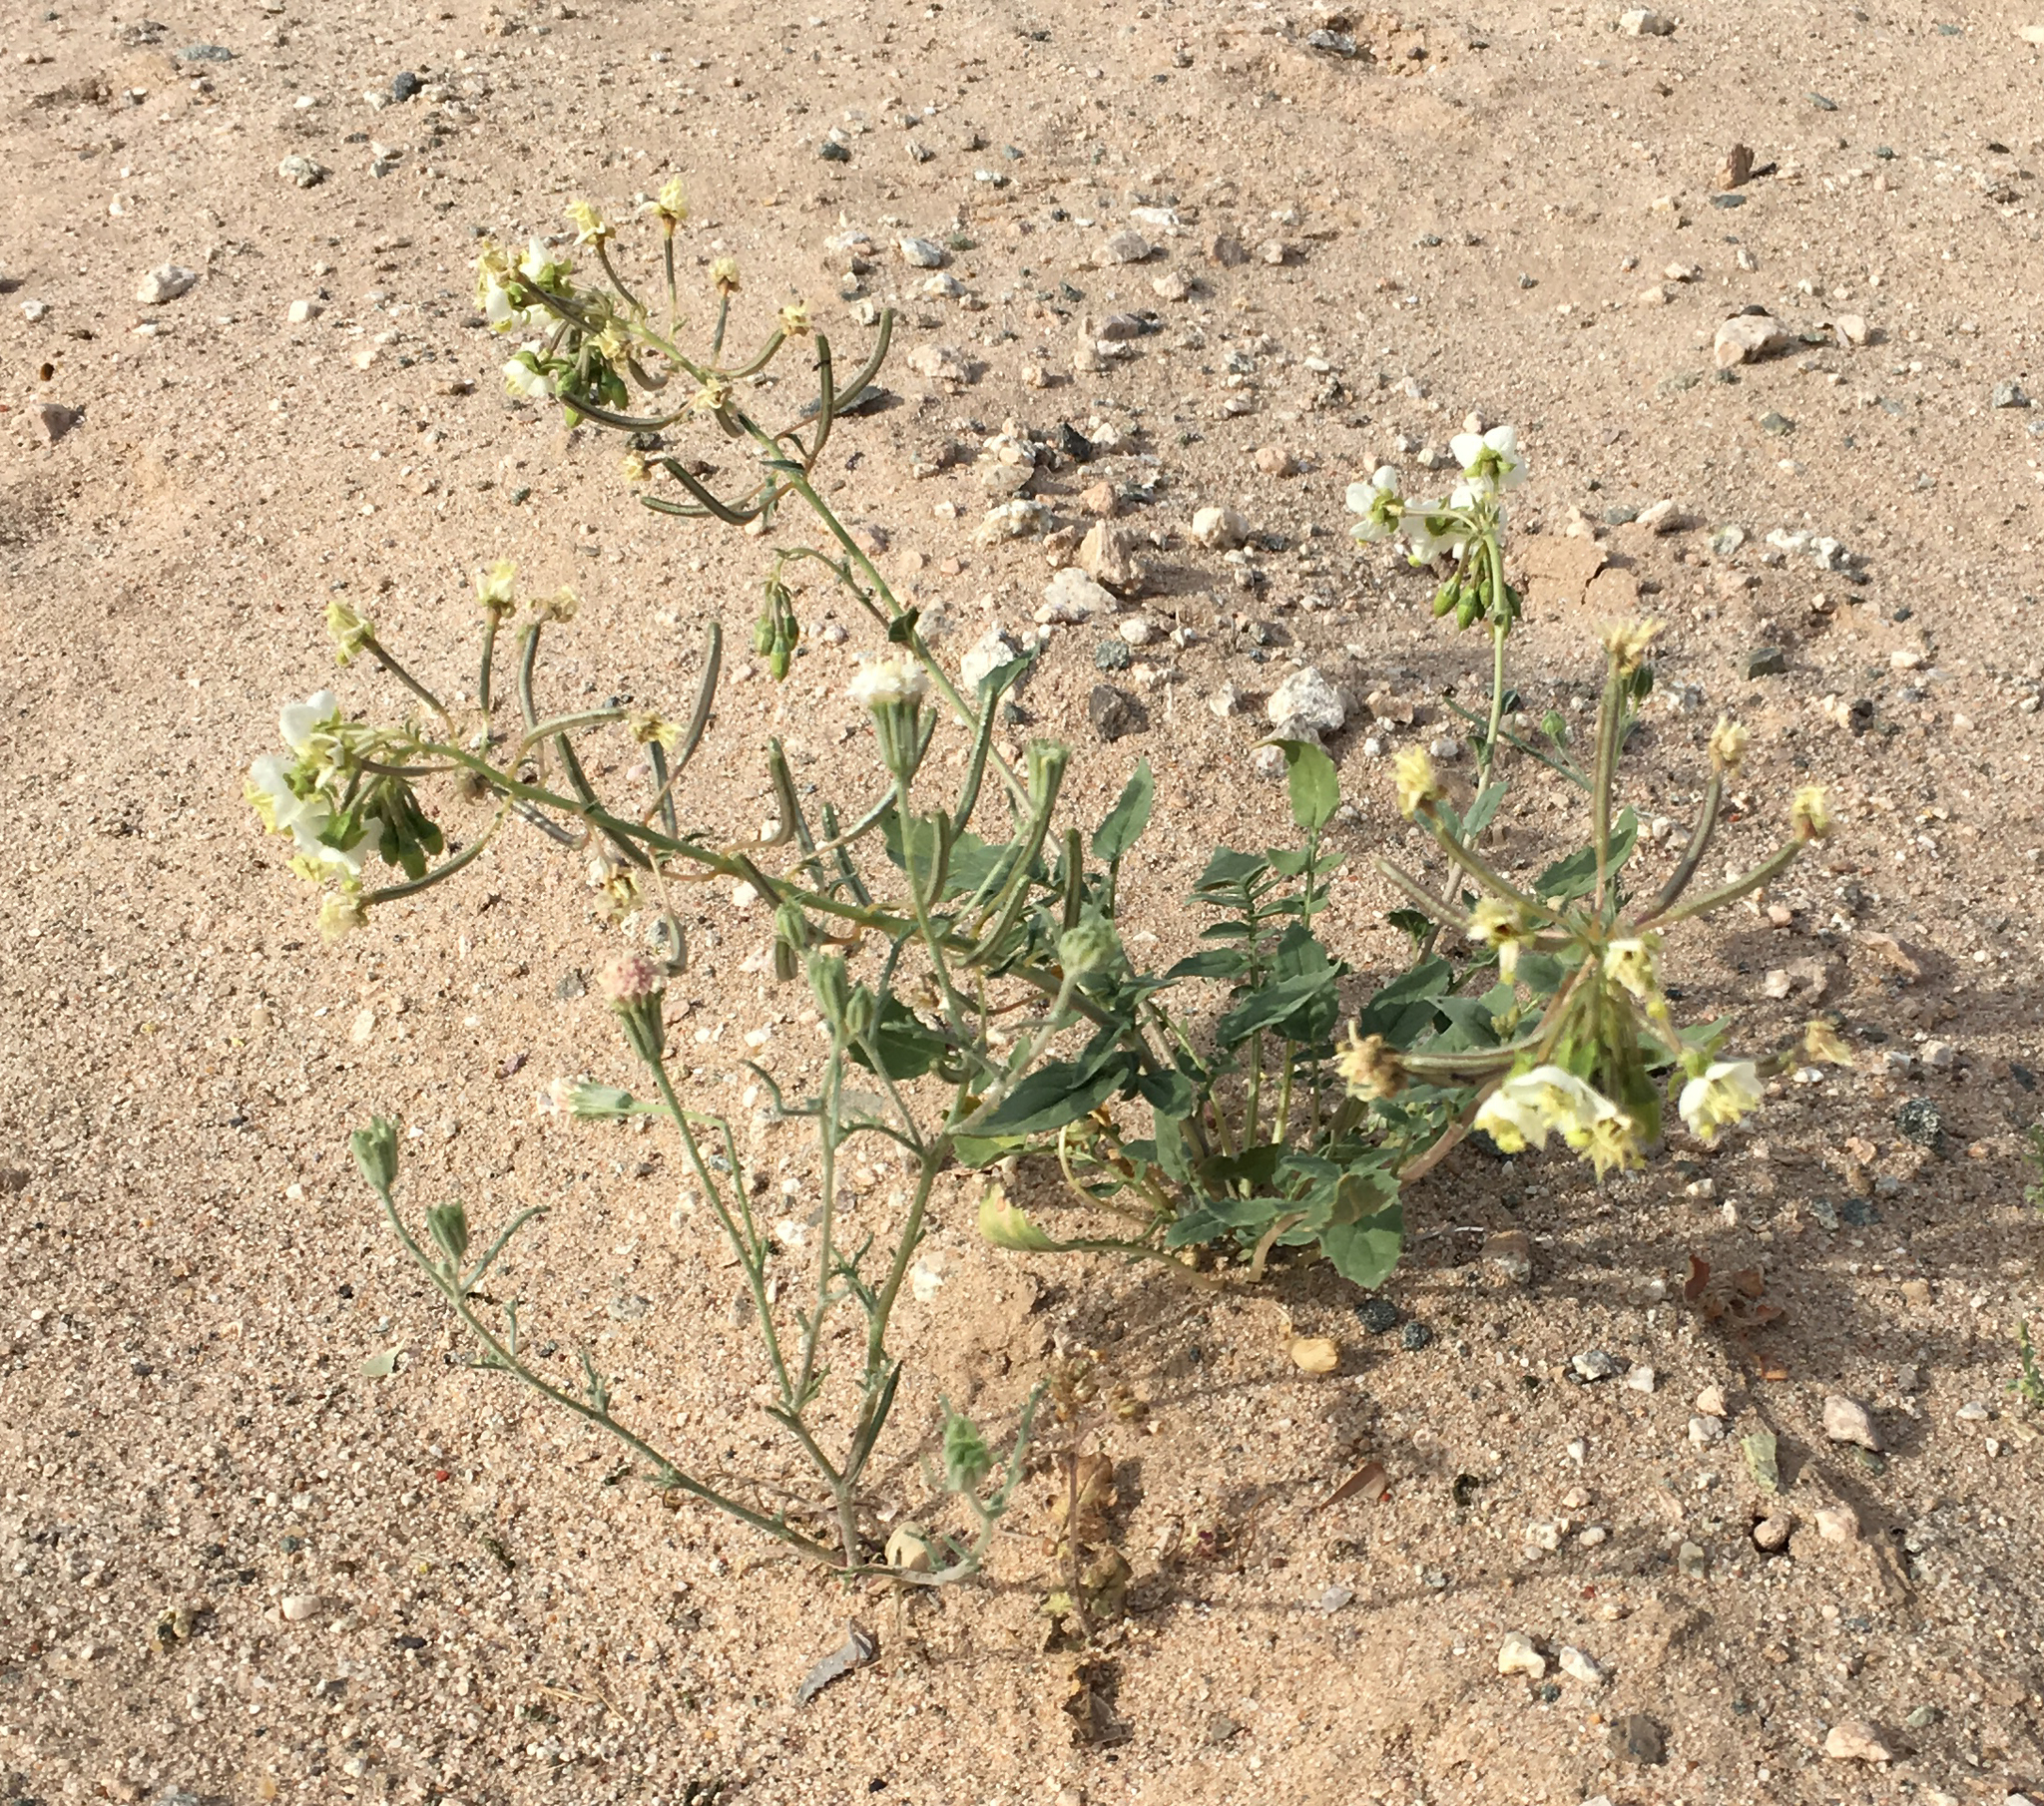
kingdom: Plantae
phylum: Tracheophyta
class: Magnoliopsida
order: Myrtales
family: Onagraceae
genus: Chylismia
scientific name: Chylismia claviformis
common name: Browneyes
